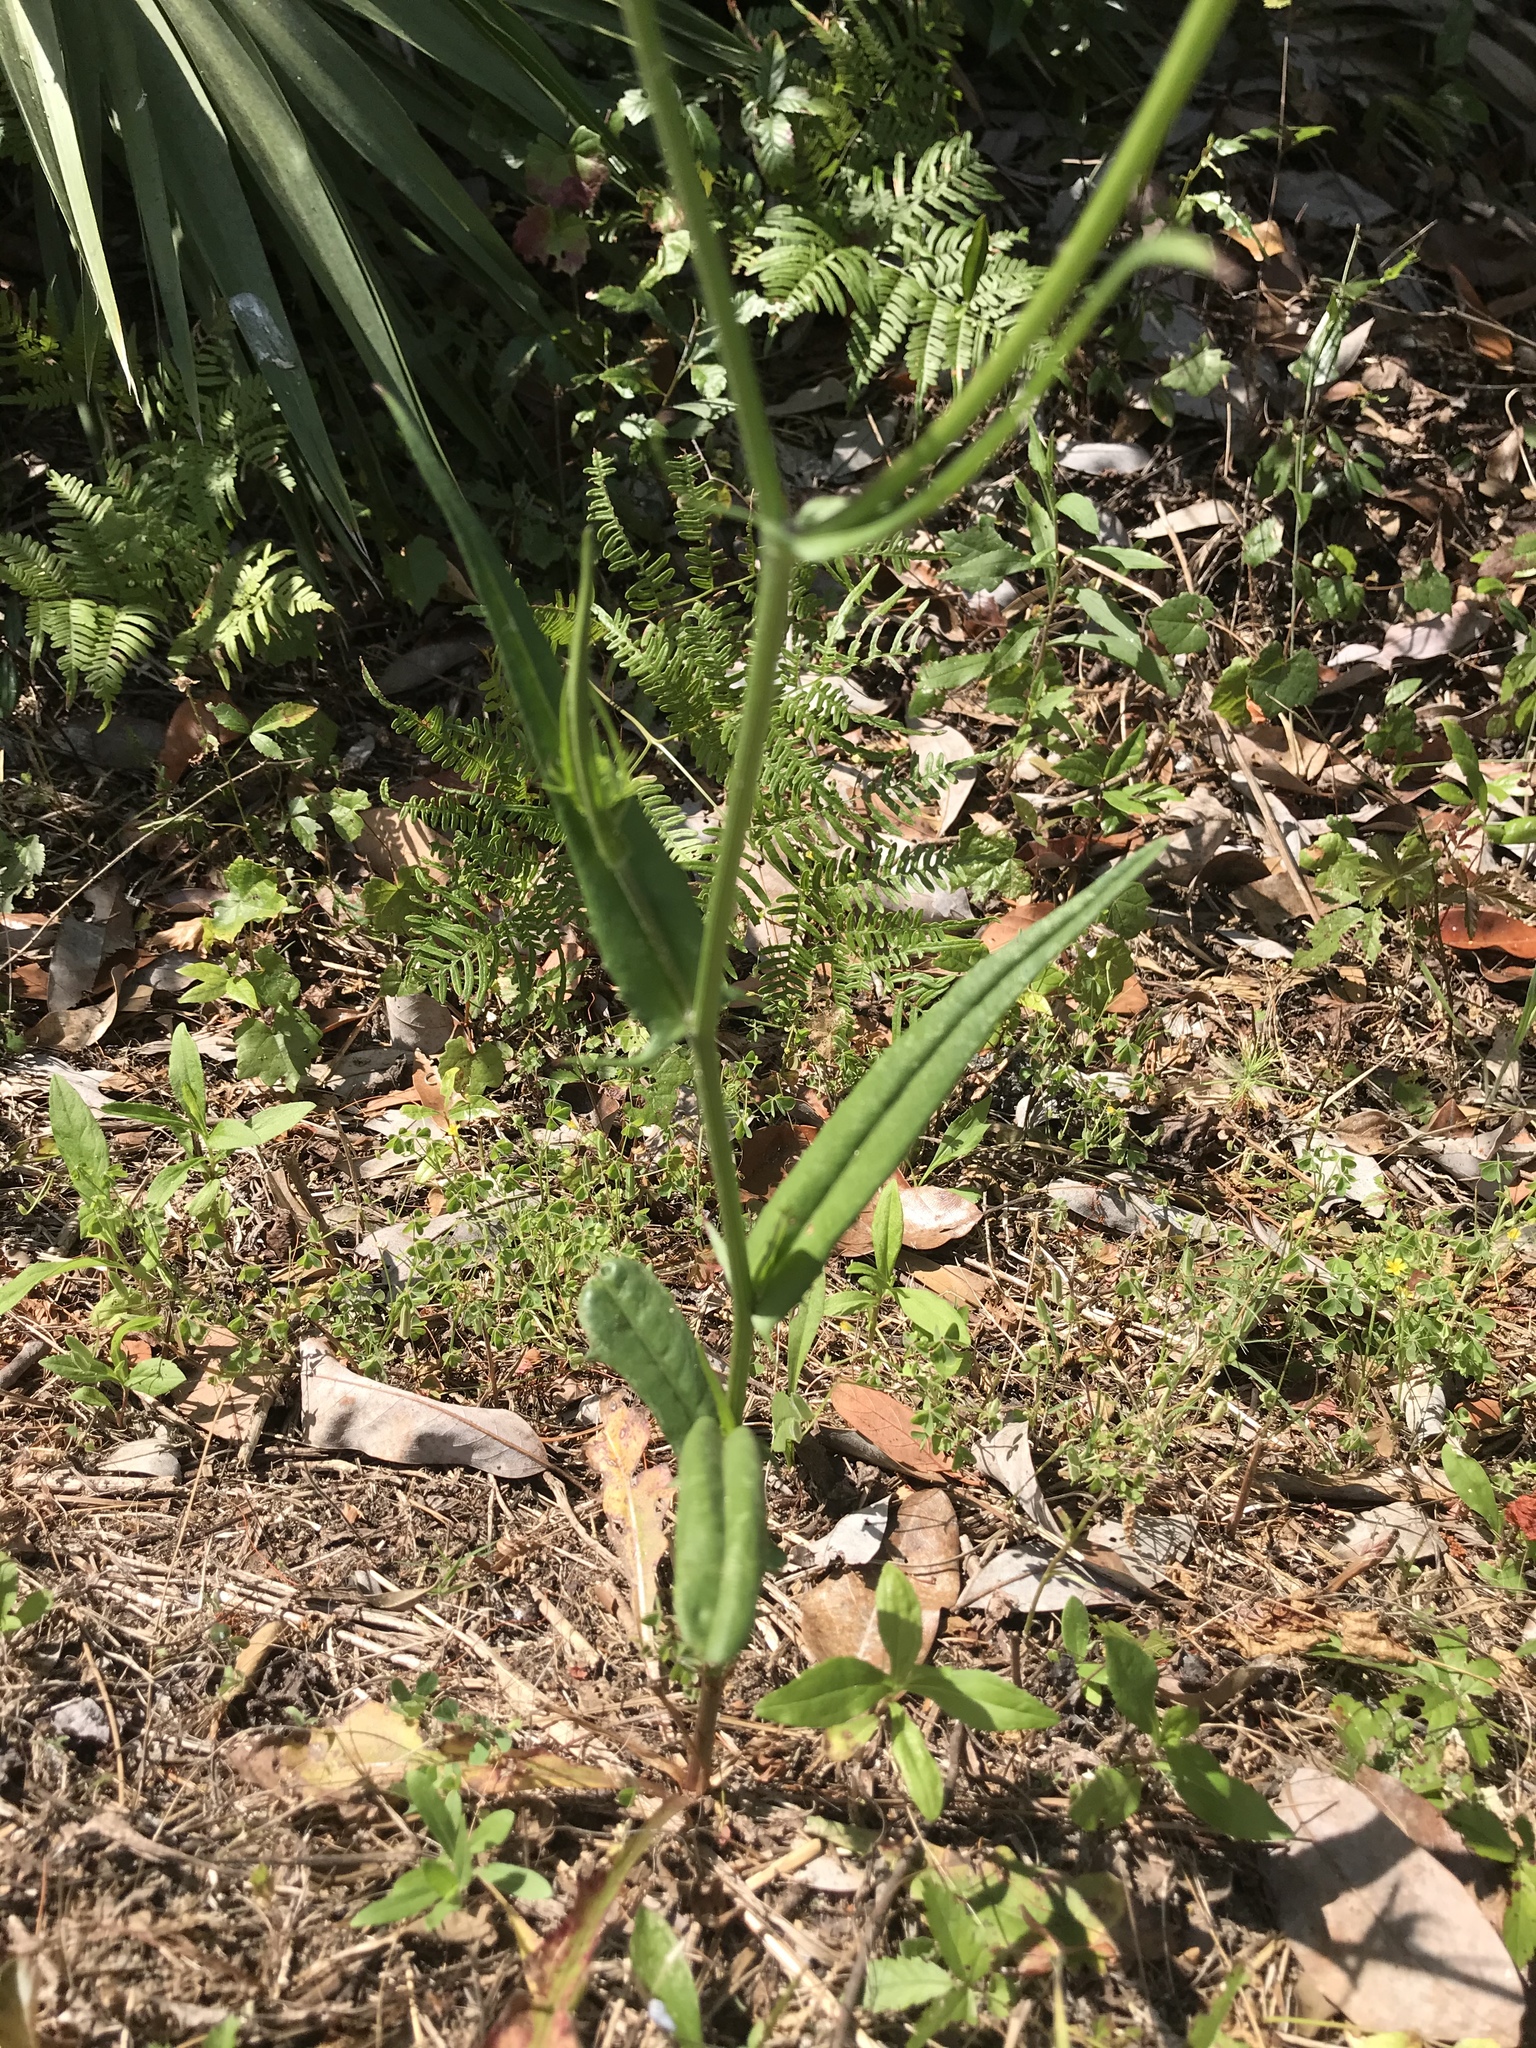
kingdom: Plantae
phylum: Tracheophyta
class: Magnoliopsida
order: Asterales
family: Asteraceae
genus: Pyrrhopappus
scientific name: Pyrrhopappus carolinianus
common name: Carolina desert-chicory
